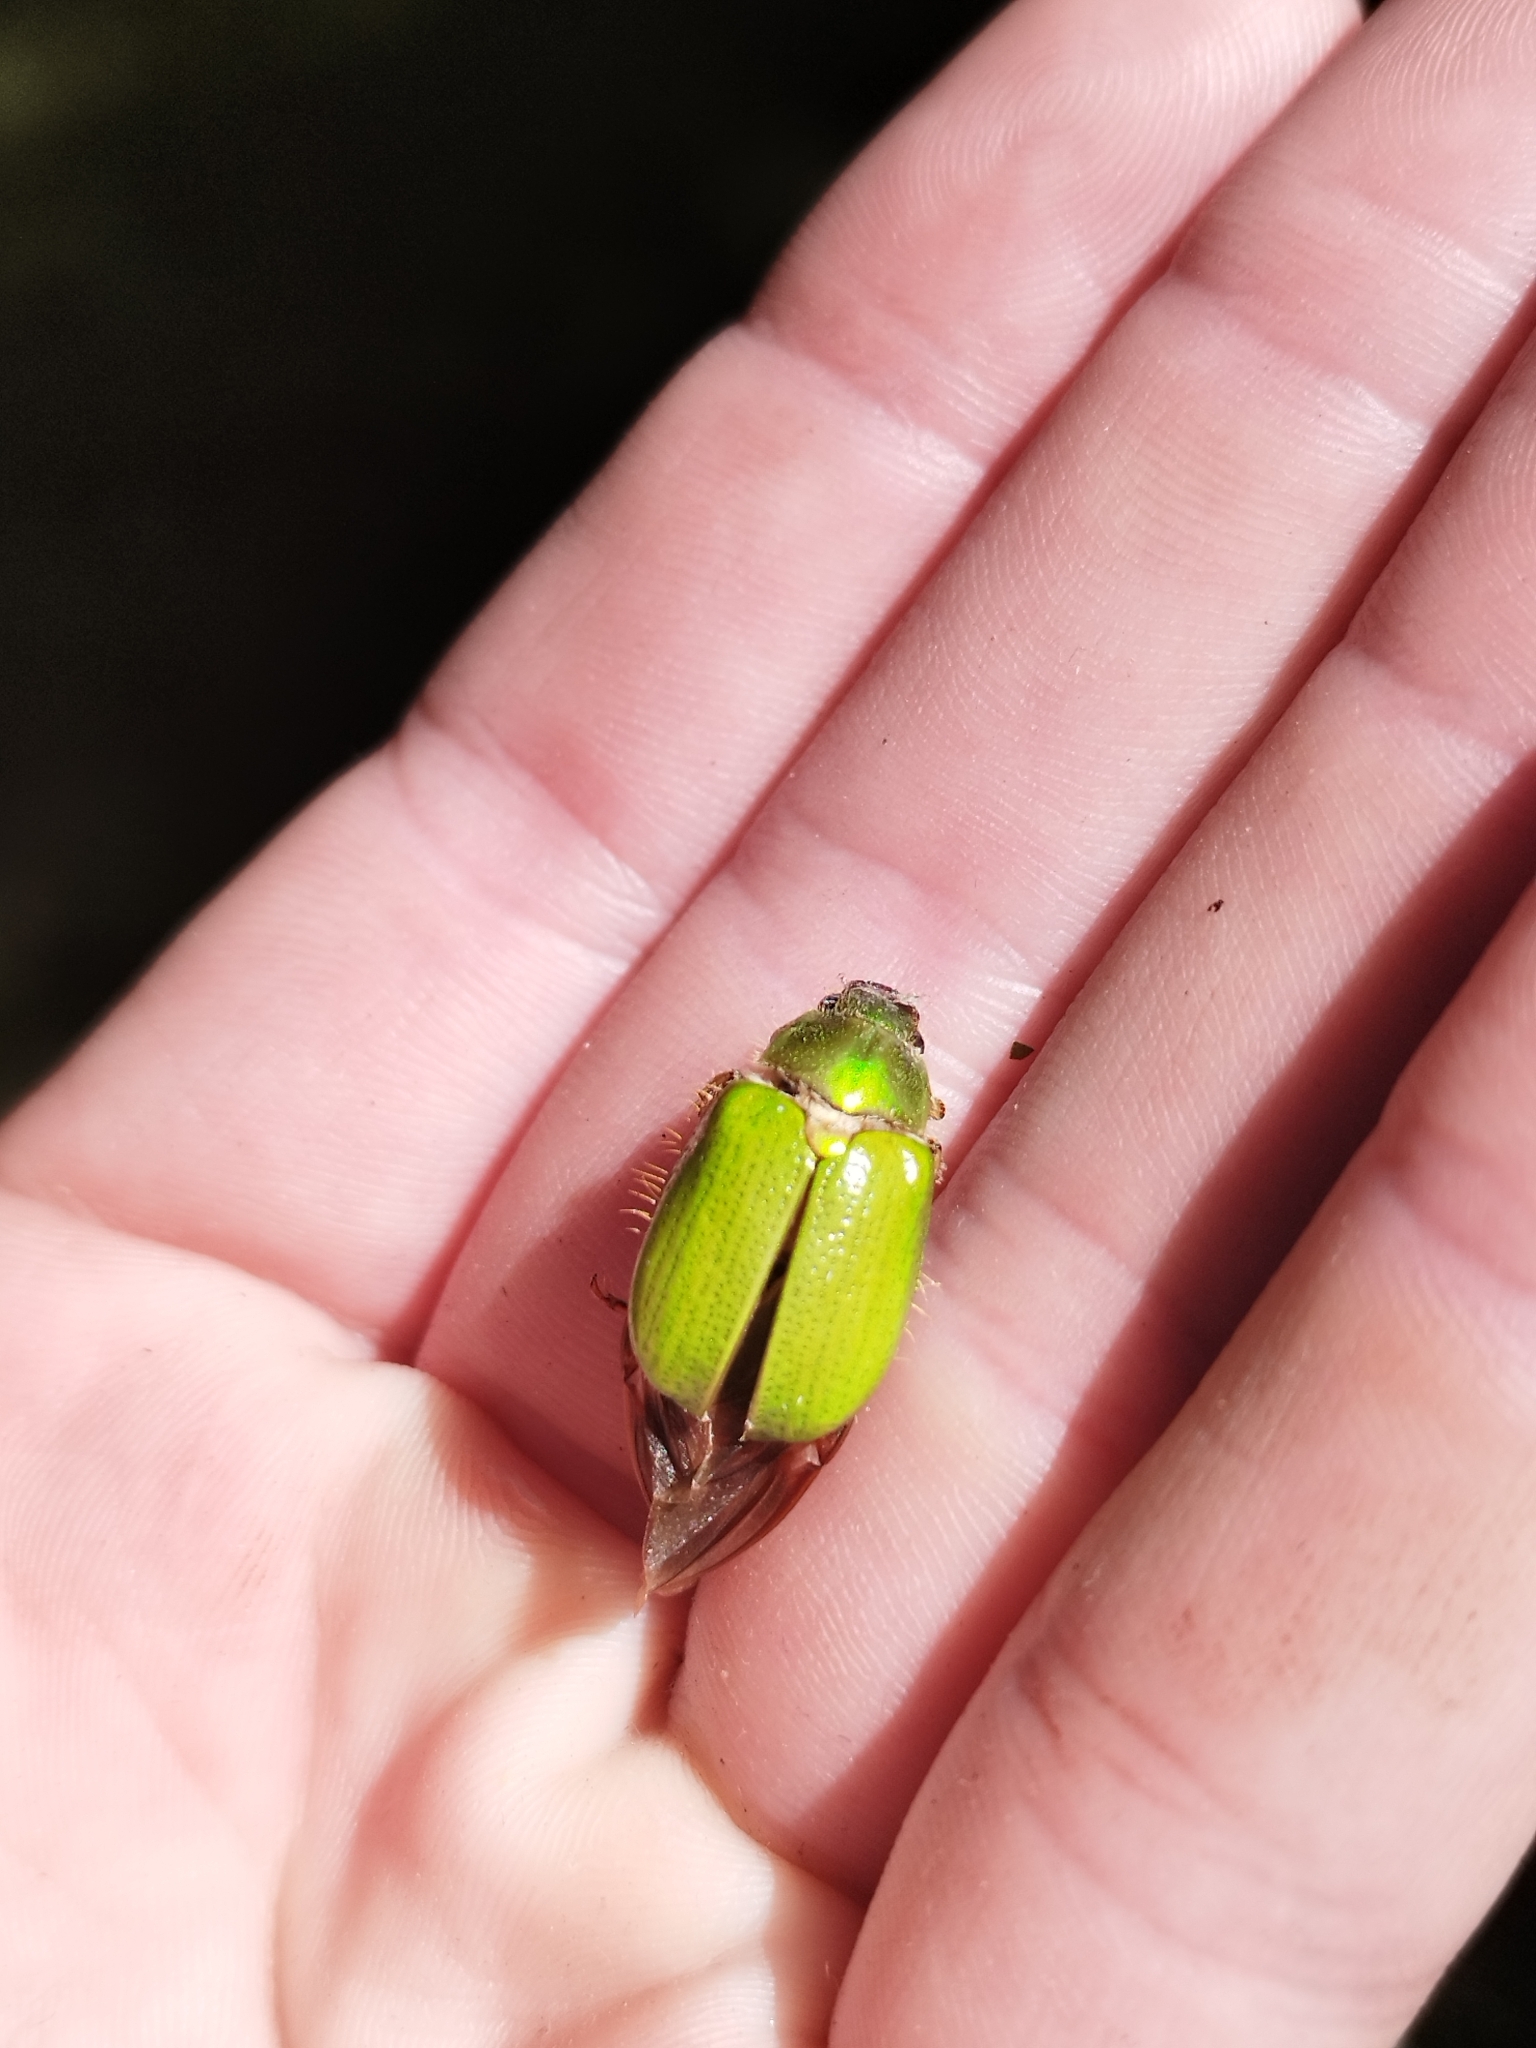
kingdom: Animalia
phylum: Arthropoda
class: Insecta
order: Coleoptera
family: Scarabaeidae
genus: Brachysternus
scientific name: Brachysternus prasinus
